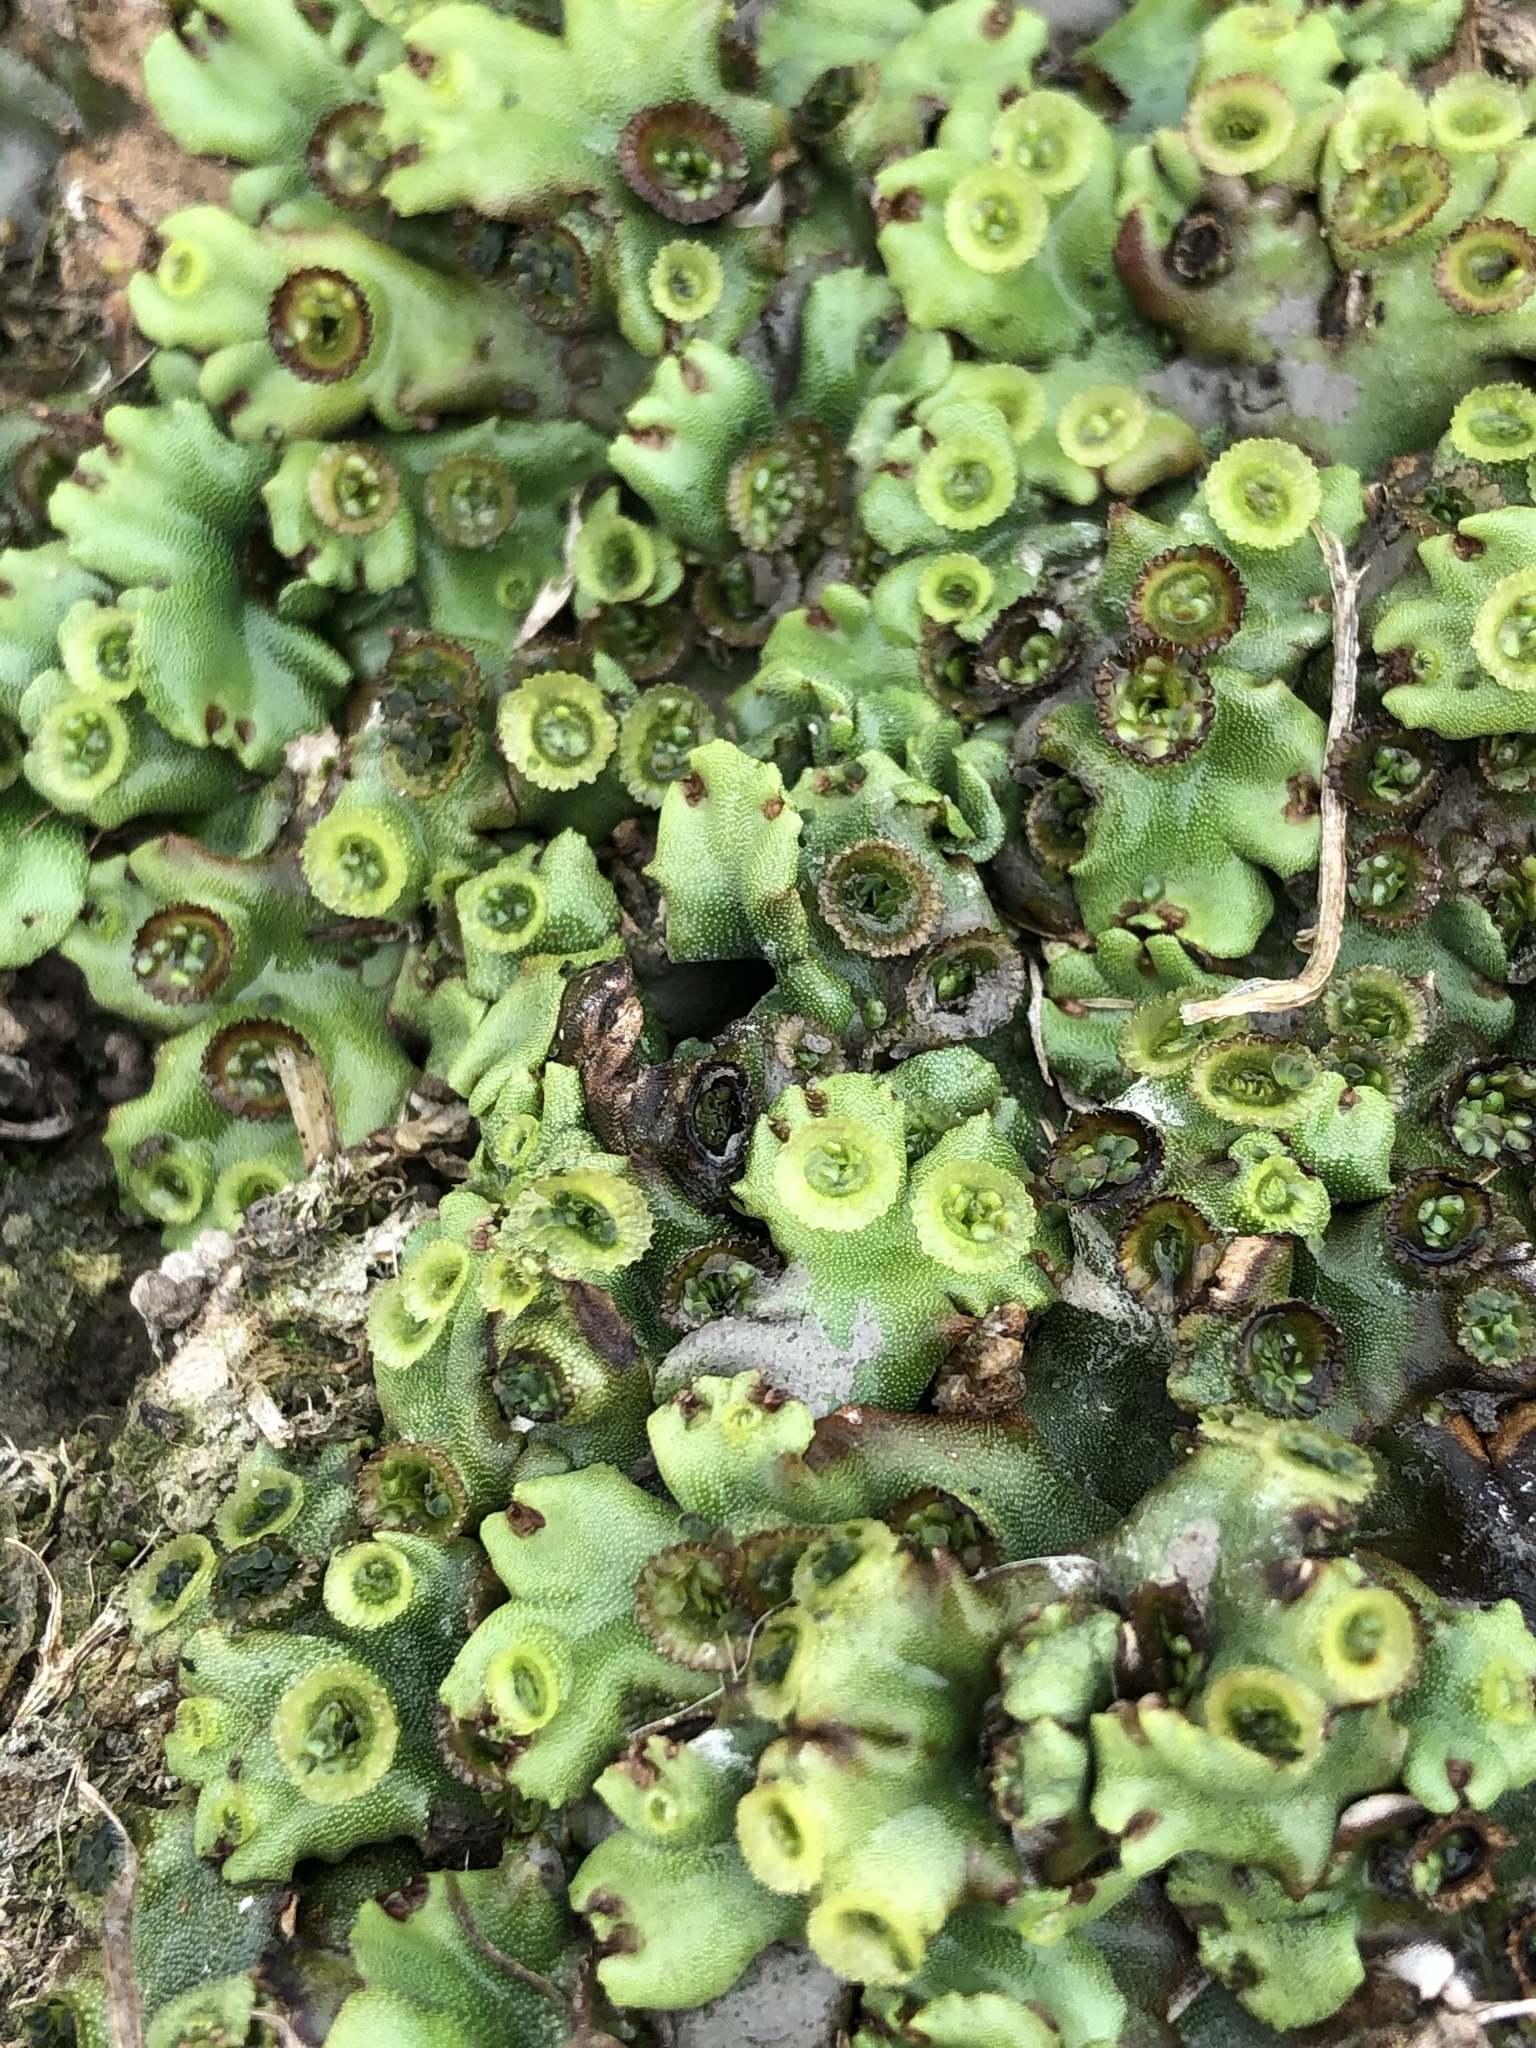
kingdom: Plantae
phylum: Marchantiophyta
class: Marchantiopsida
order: Marchantiales
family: Marchantiaceae
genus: Marchantia
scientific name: Marchantia berteroana
